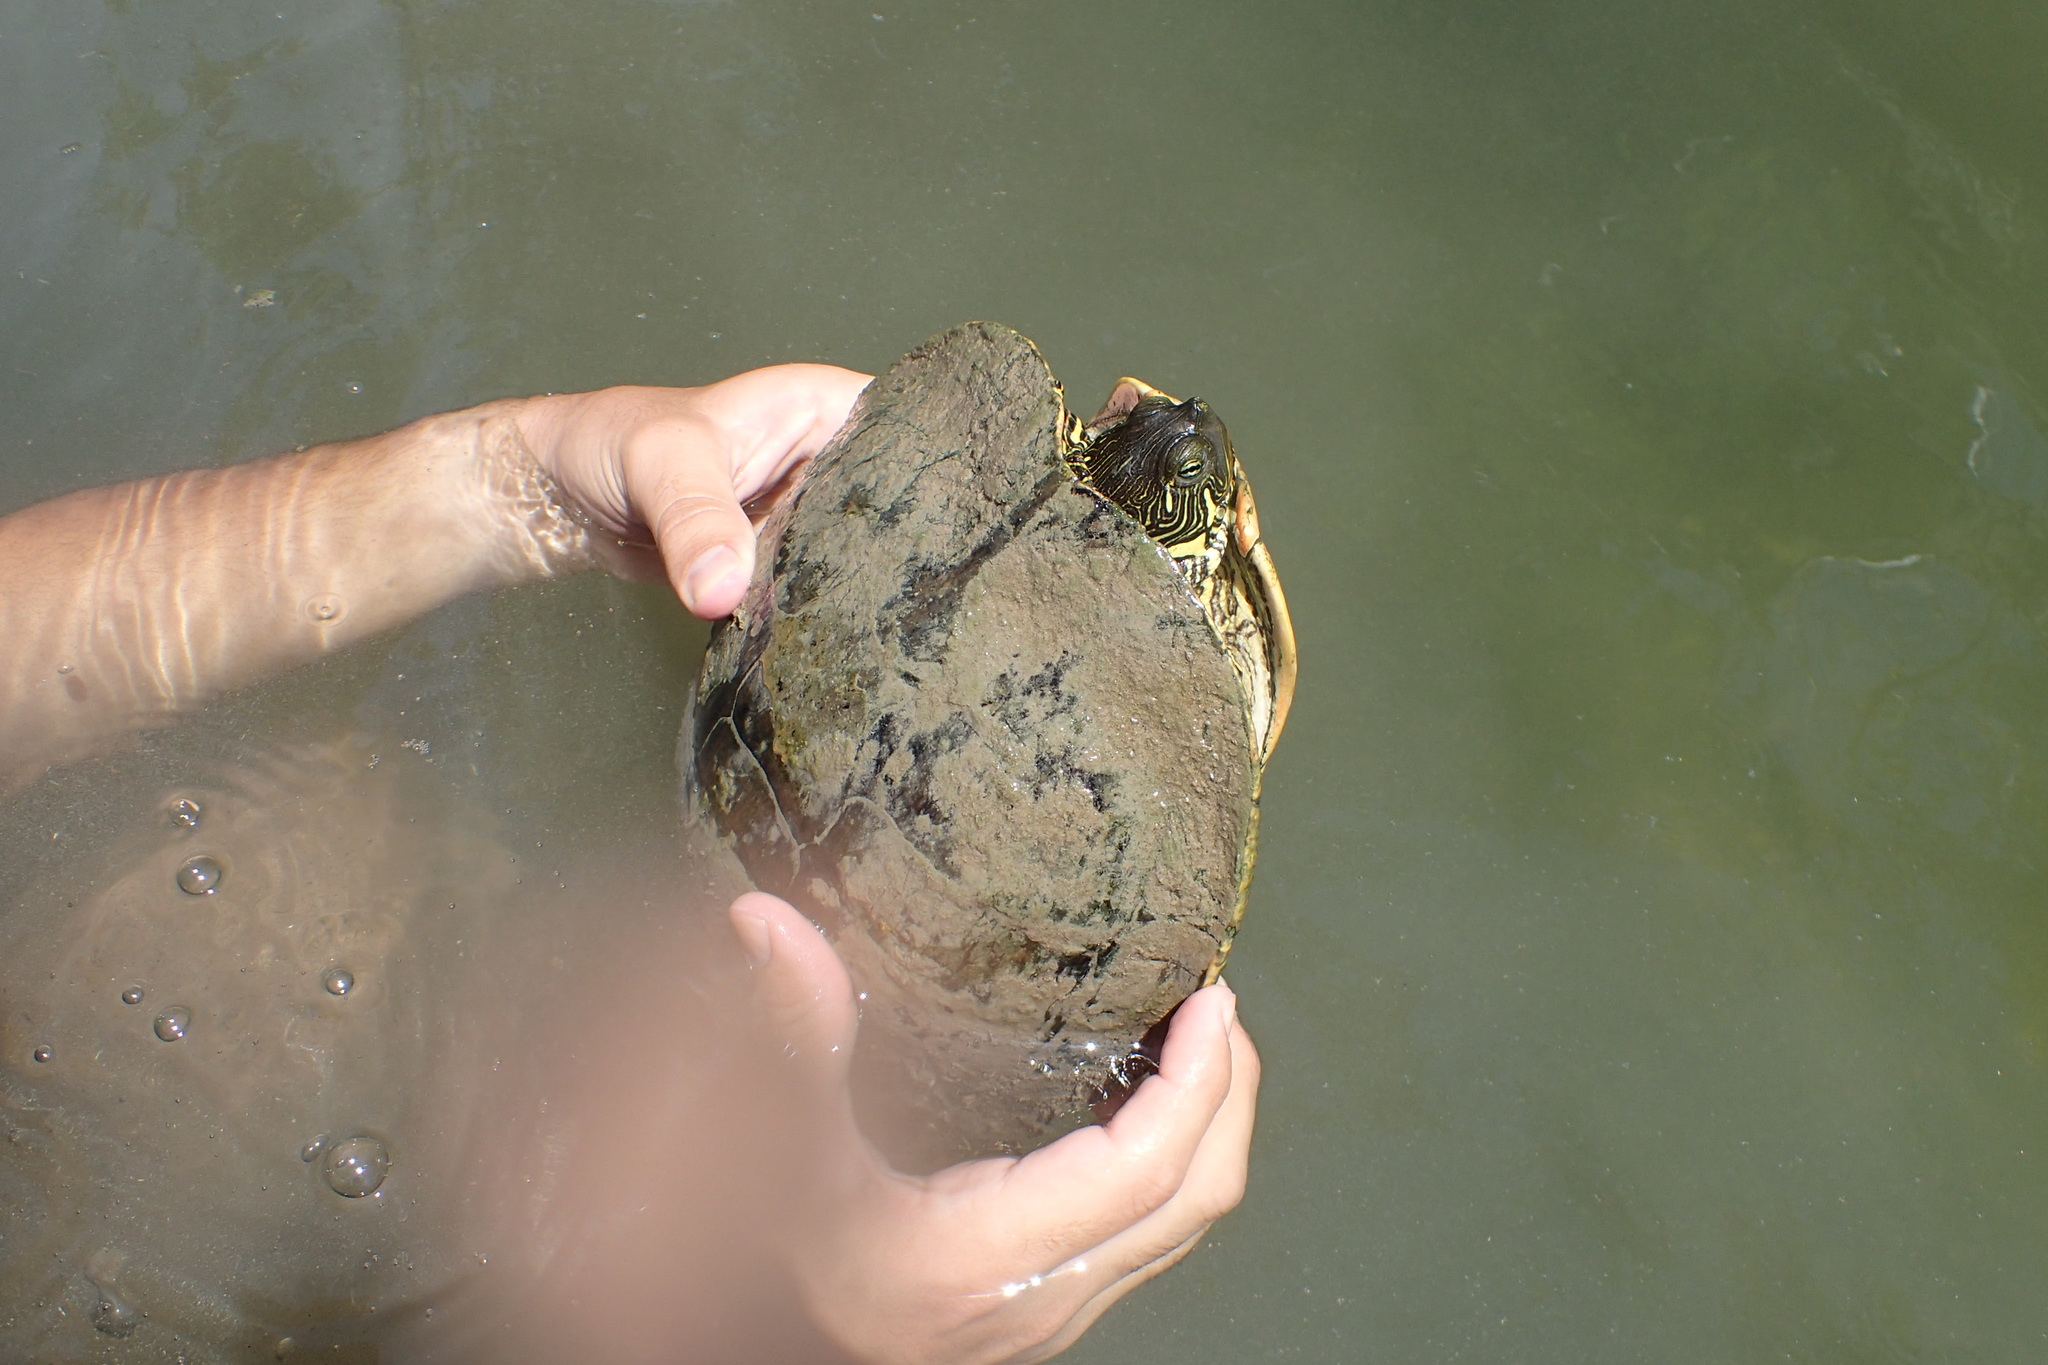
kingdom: Animalia
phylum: Chordata
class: Testudines
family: Emydidae
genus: Pseudemys
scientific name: Pseudemys texana
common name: Texas river cooter
